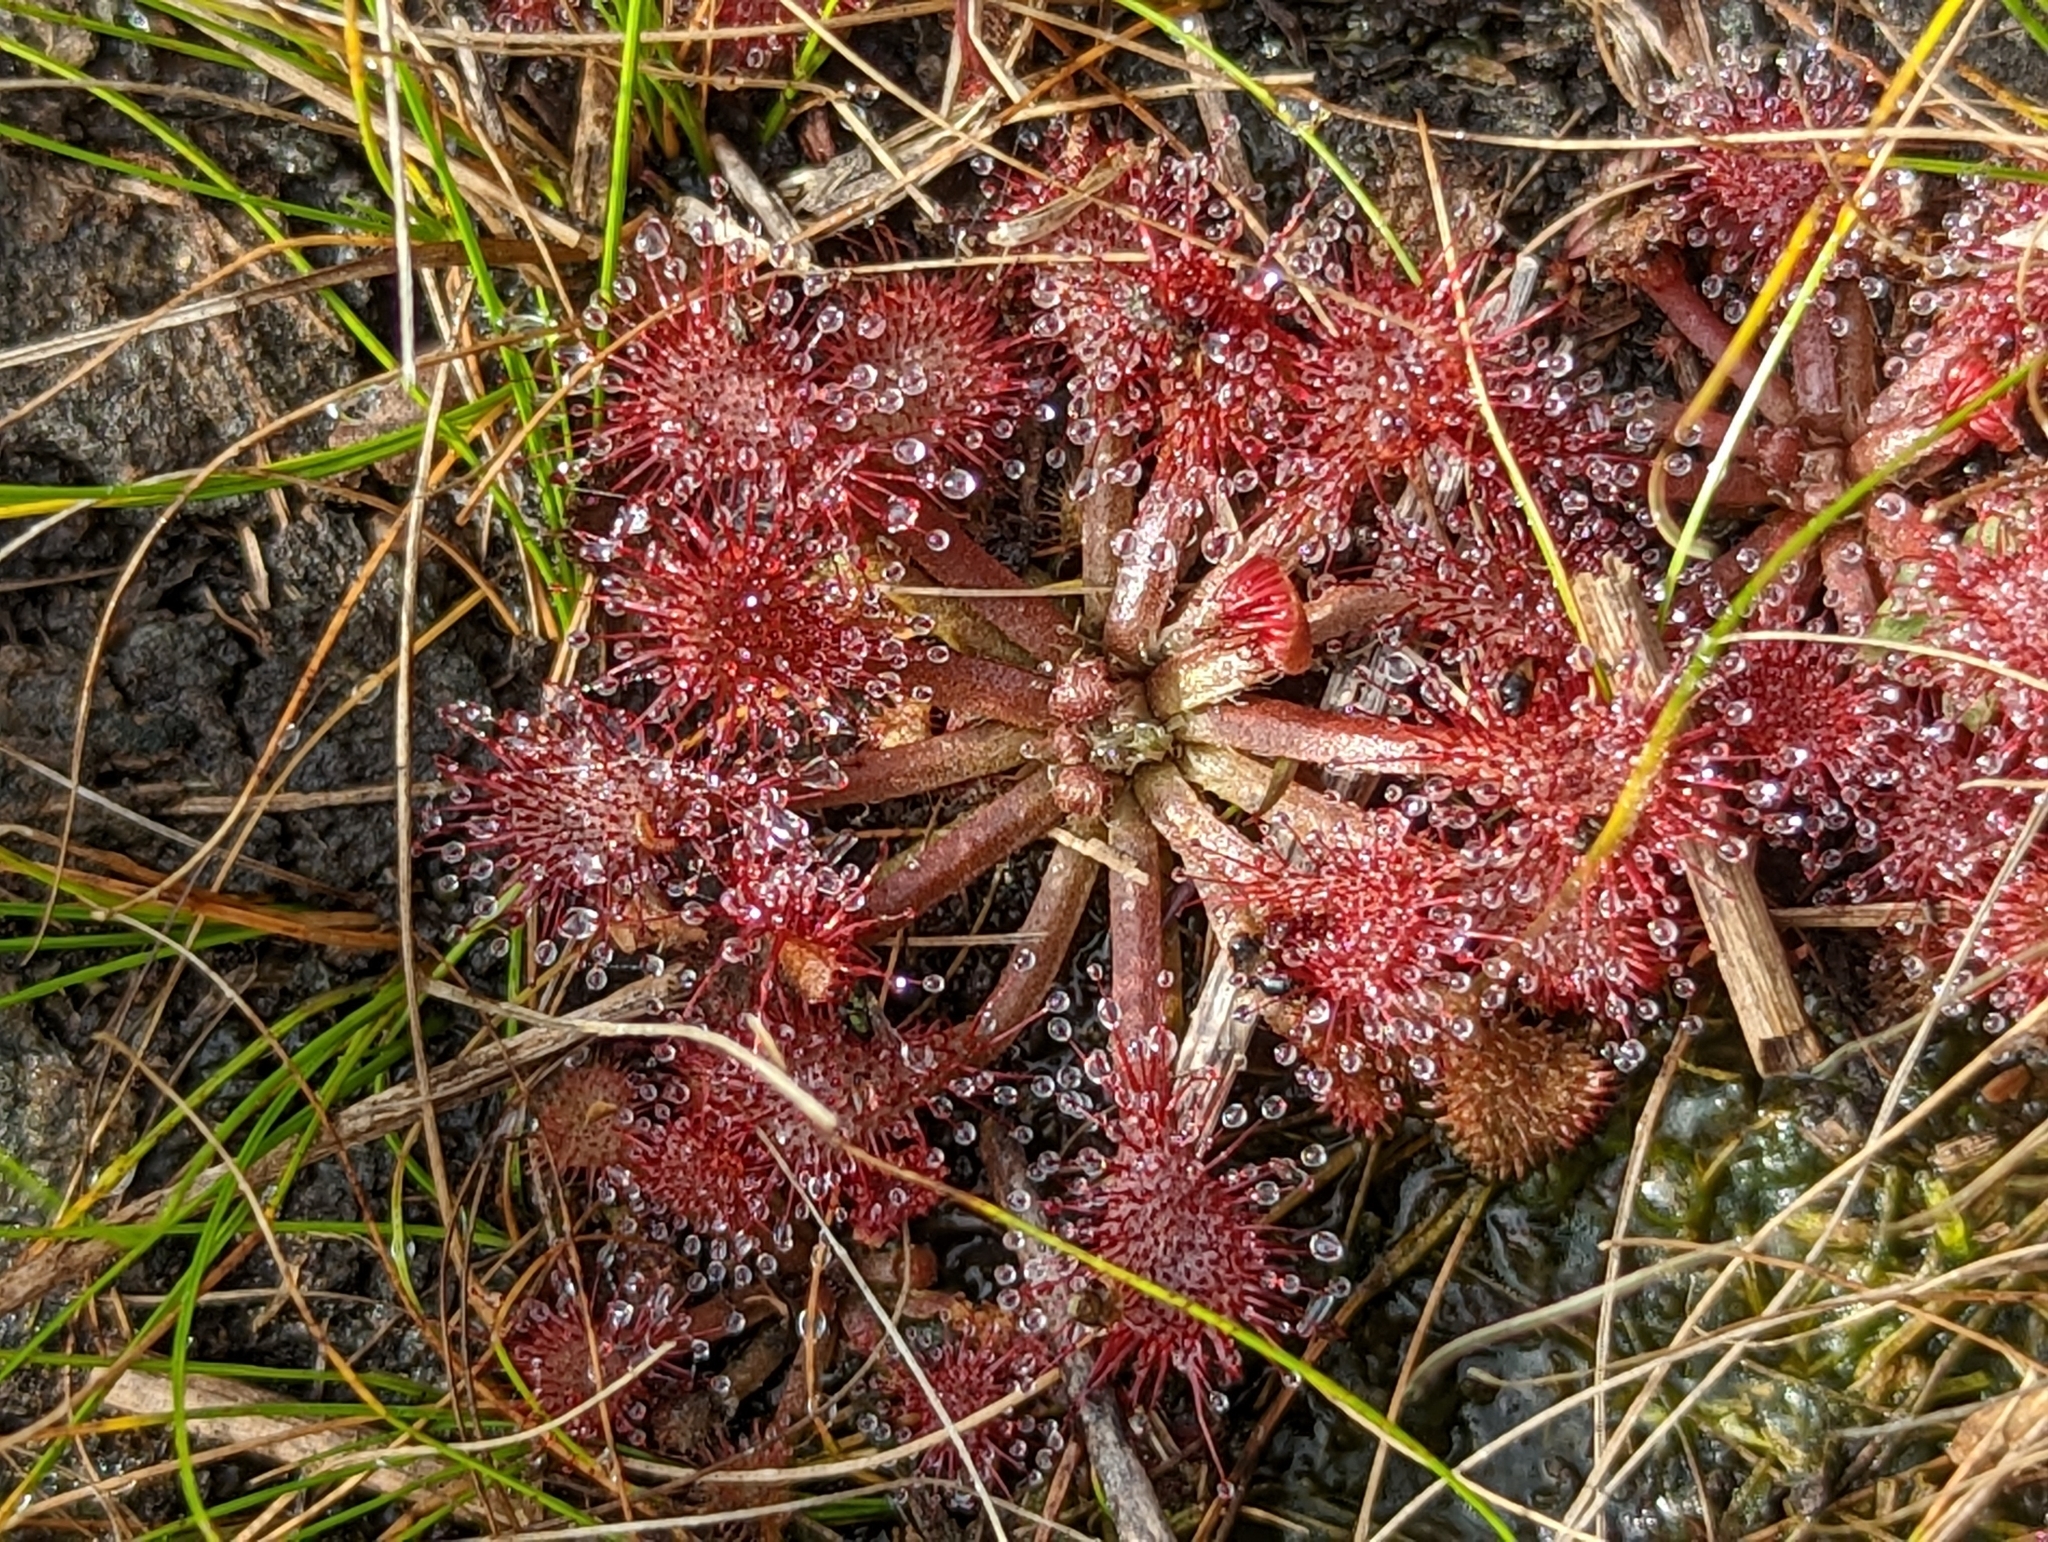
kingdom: Plantae
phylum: Tracheophyta
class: Magnoliopsida
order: Caryophyllales
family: Droseraceae
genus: Drosera
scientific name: Drosera capillaris
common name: Pink sundew
